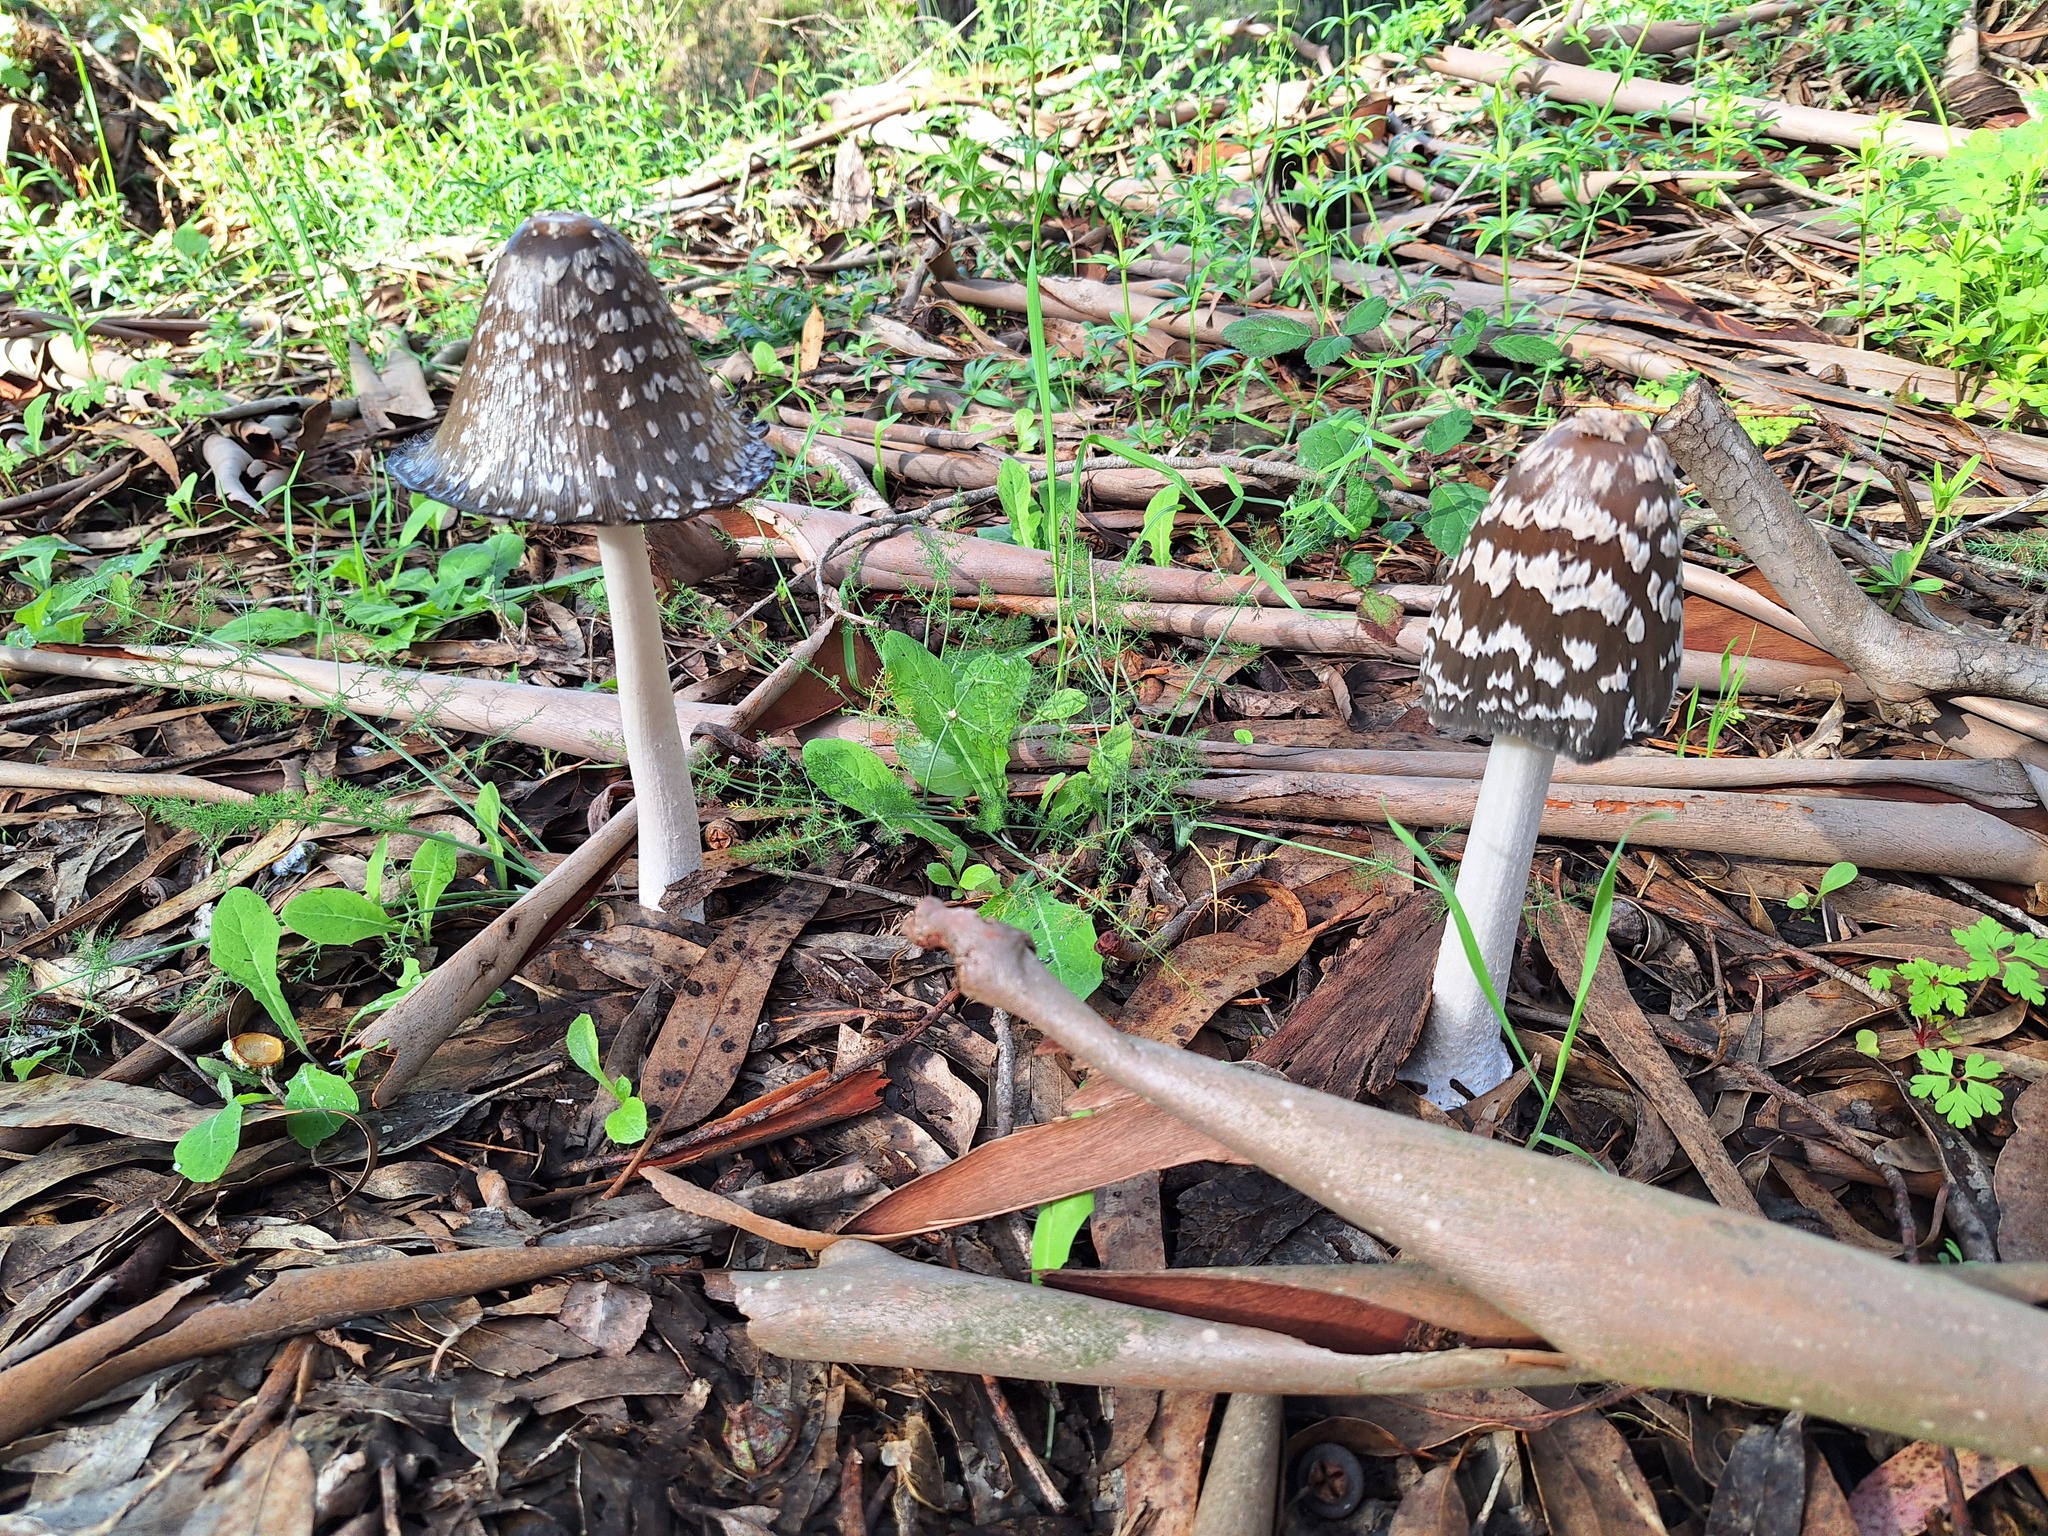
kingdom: Fungi
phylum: Basidiomycota
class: Agaricomycetes
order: Agaricales
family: Psathyrellaceae
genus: Coprinopsis
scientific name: Coprinopsis picacea
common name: Magpie inkcap
